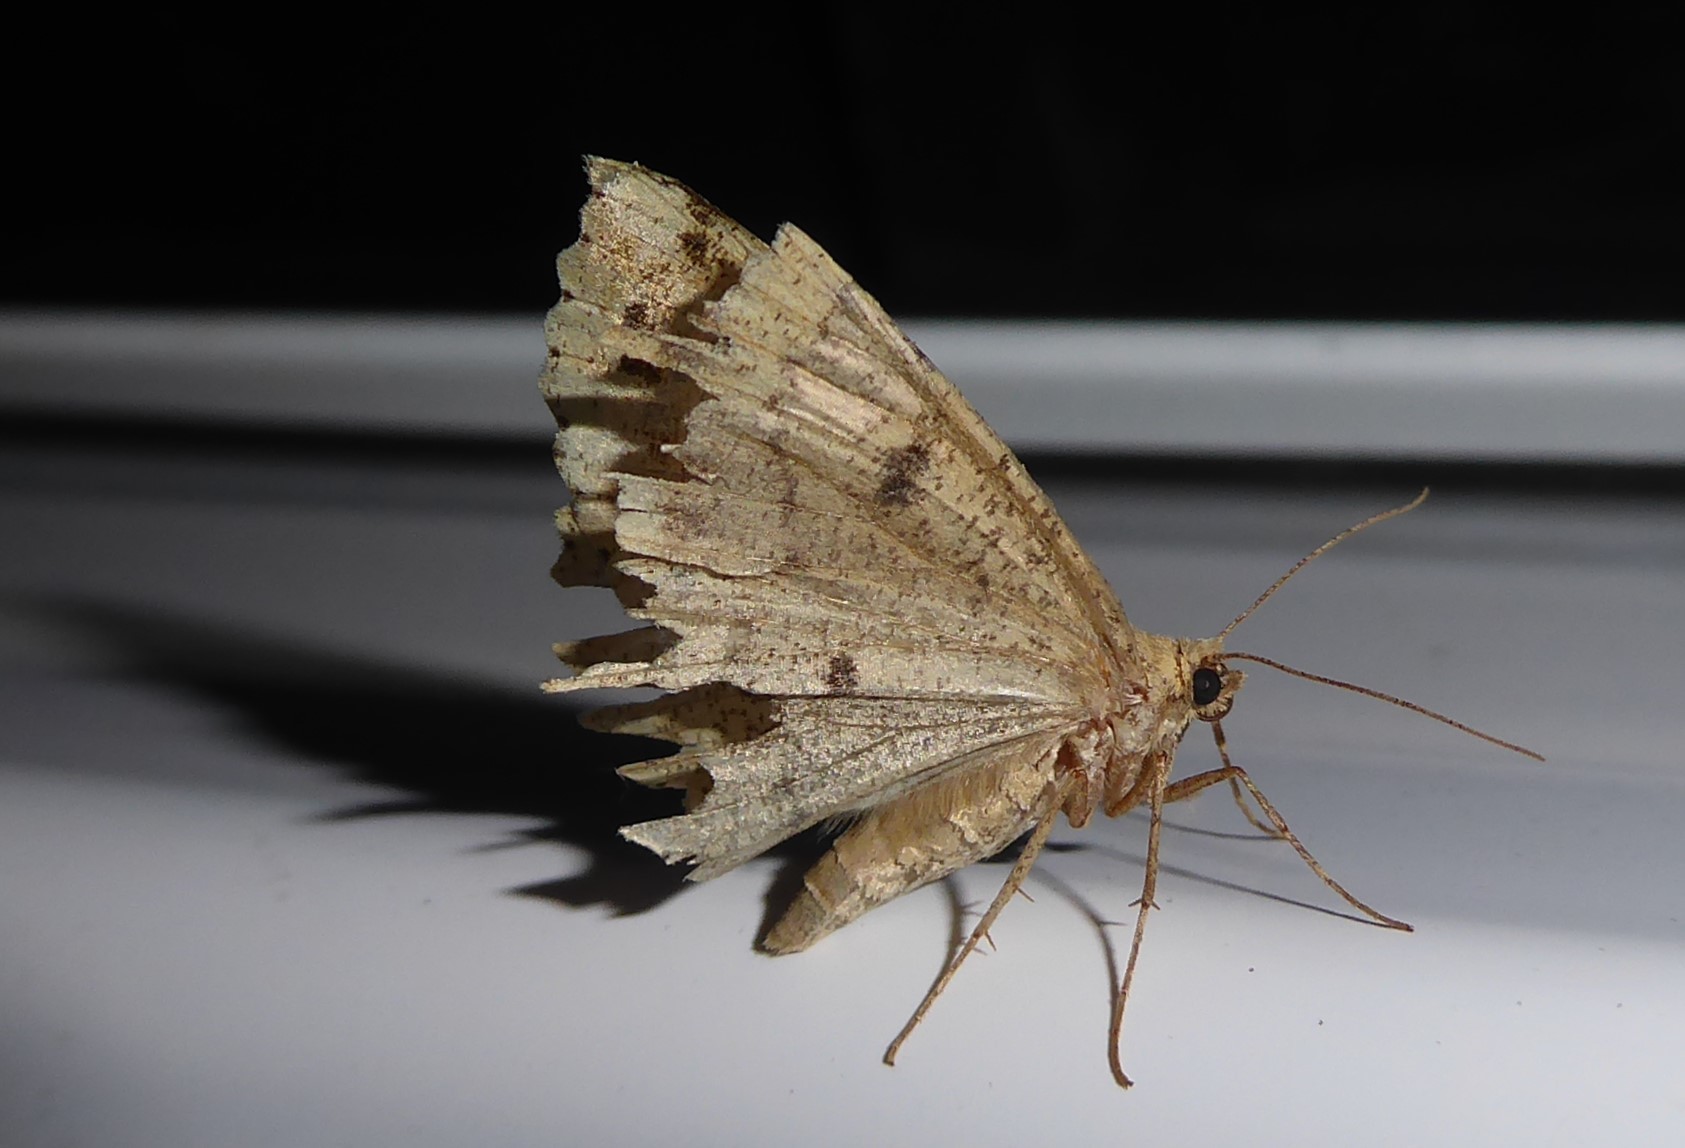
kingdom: Animalia
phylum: Arthropoda
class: Insecta
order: Lepidoptera
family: Geometridae
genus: Cleora
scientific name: Cleora scriptaria
